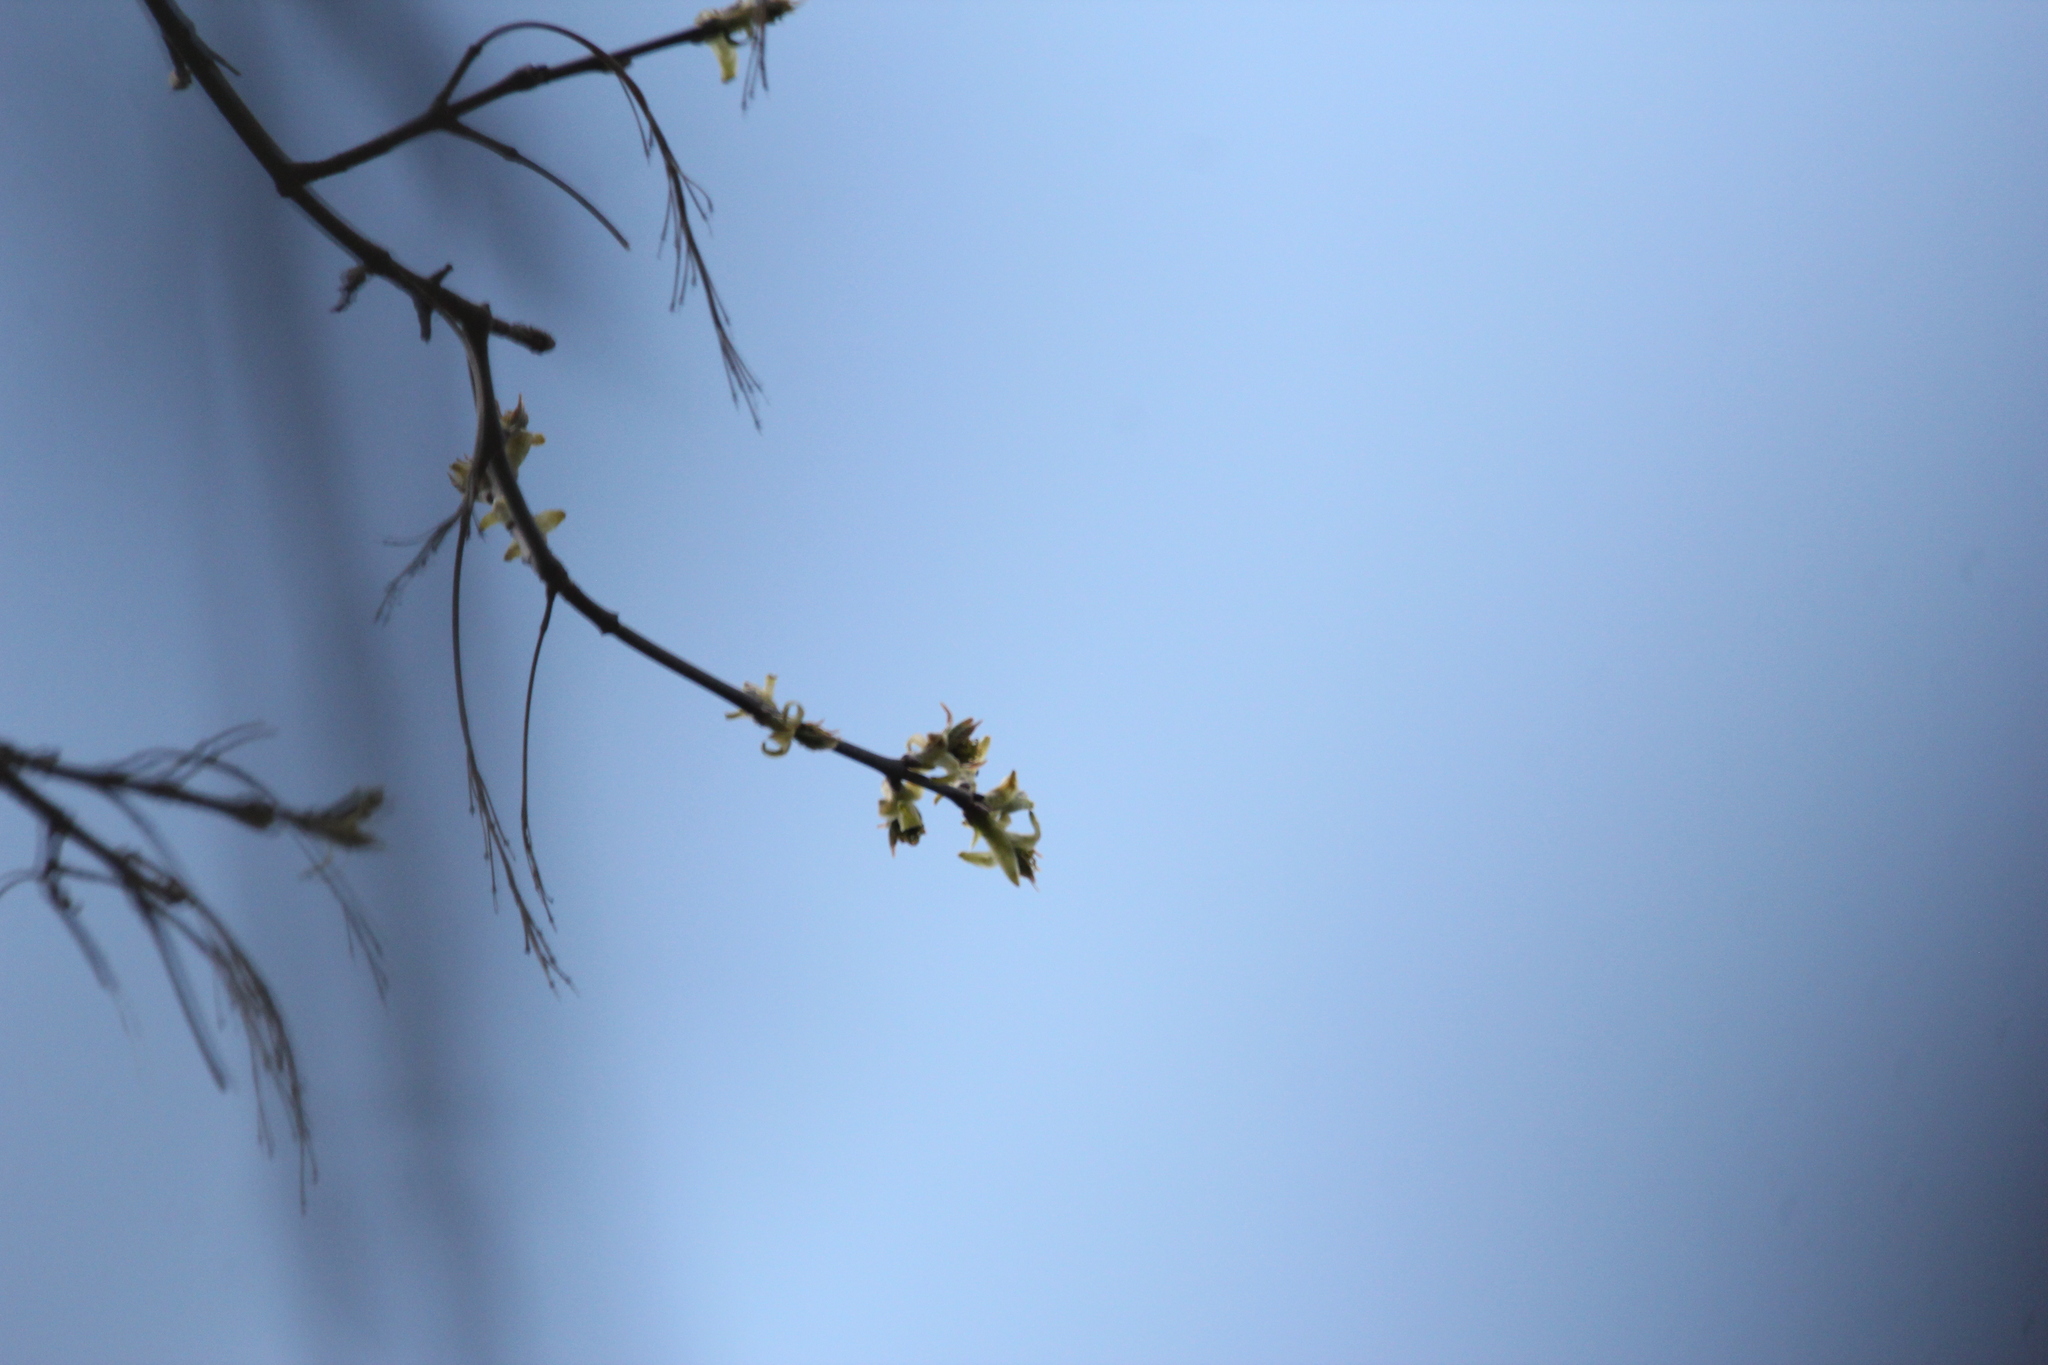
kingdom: Plantae
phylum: Tracheophyta
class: Magnoliopsida
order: Sapindales
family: Sapindaceae
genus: Acer
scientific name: Acer negundo
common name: Ashleaf maple
